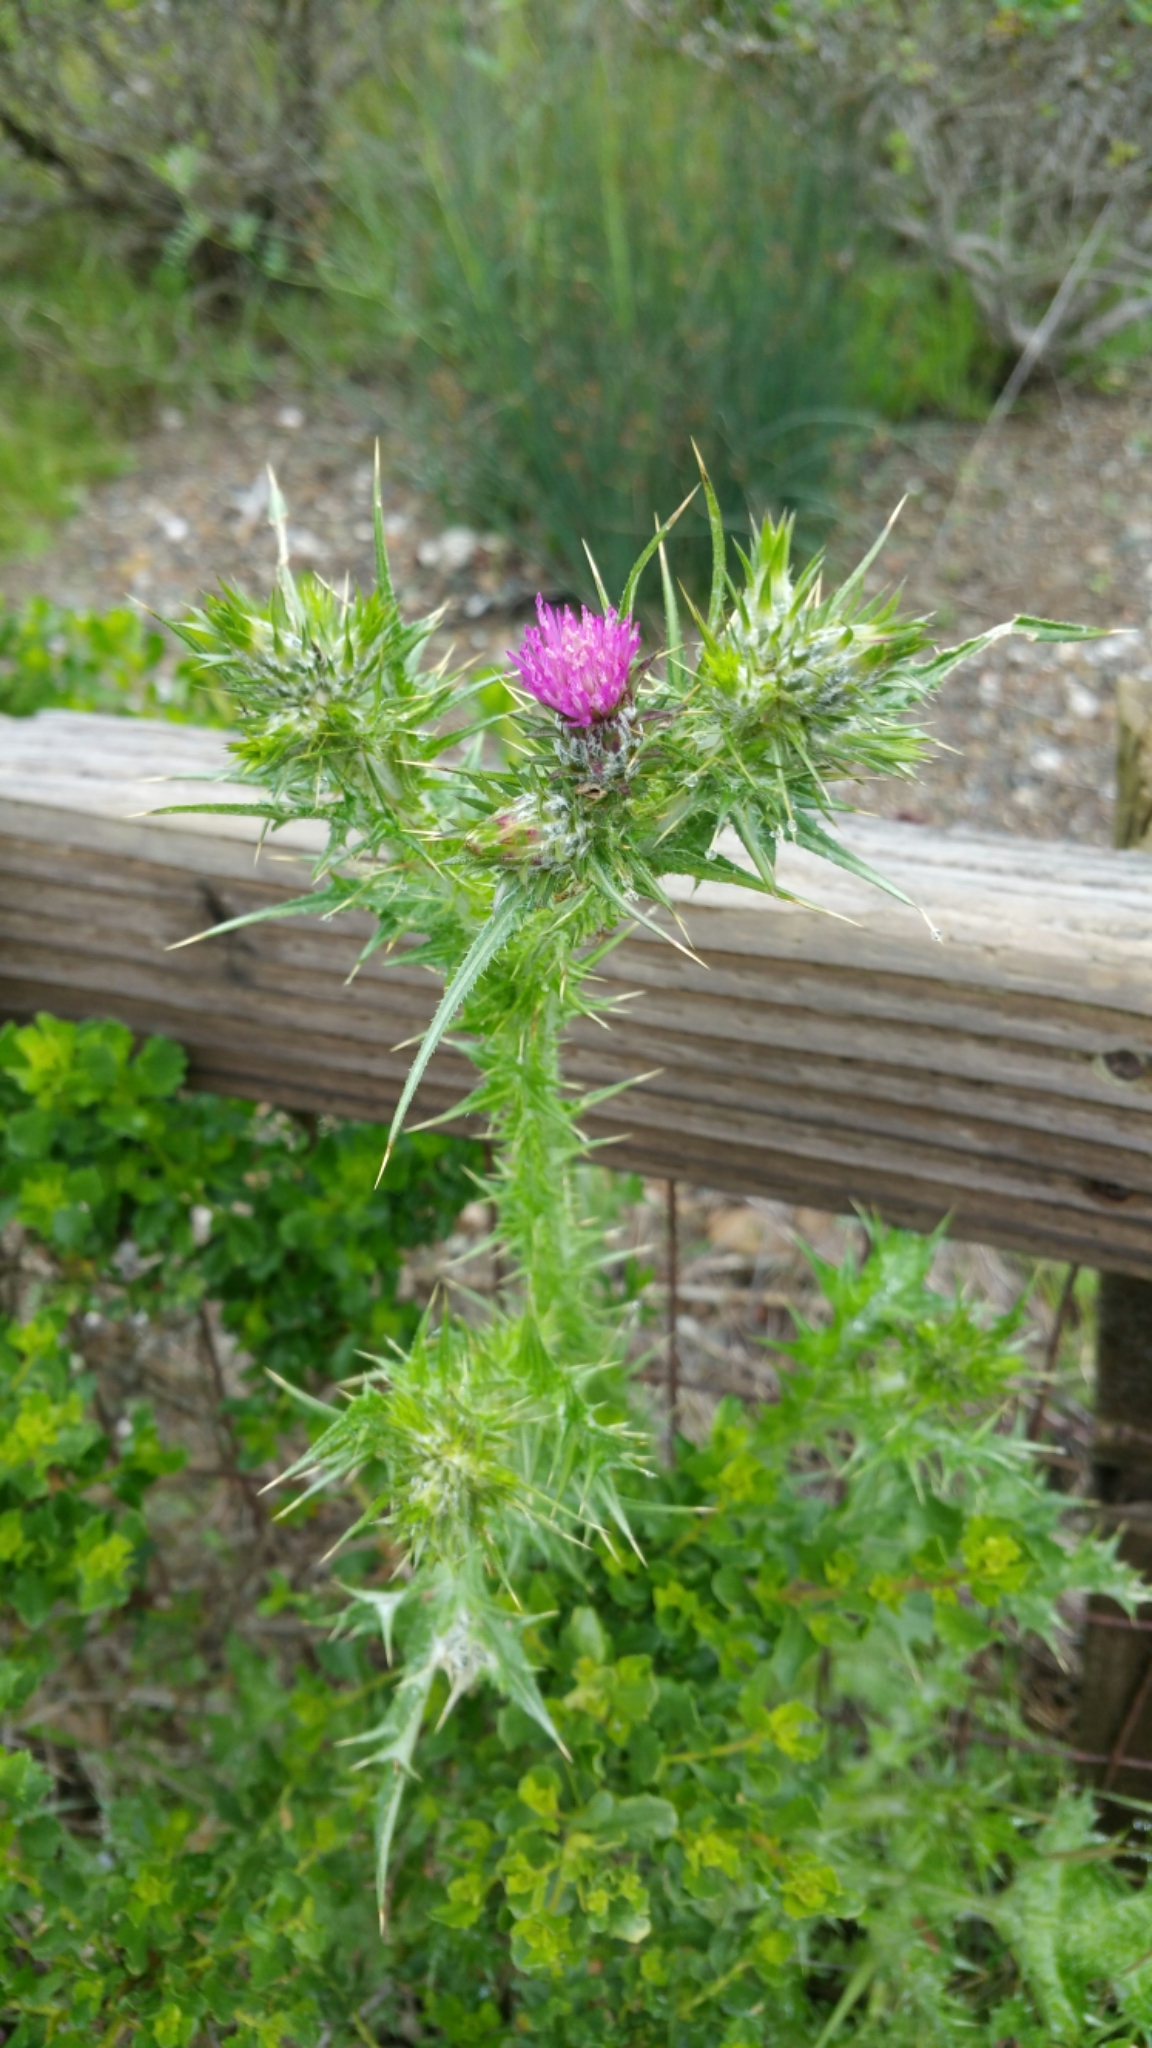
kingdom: Plantae
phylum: Tracheophyta
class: Magnoliopsida
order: Asterales
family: Asteraceae
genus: Carduus
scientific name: Carduus pycnocephalus
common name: Plymouth thistle
